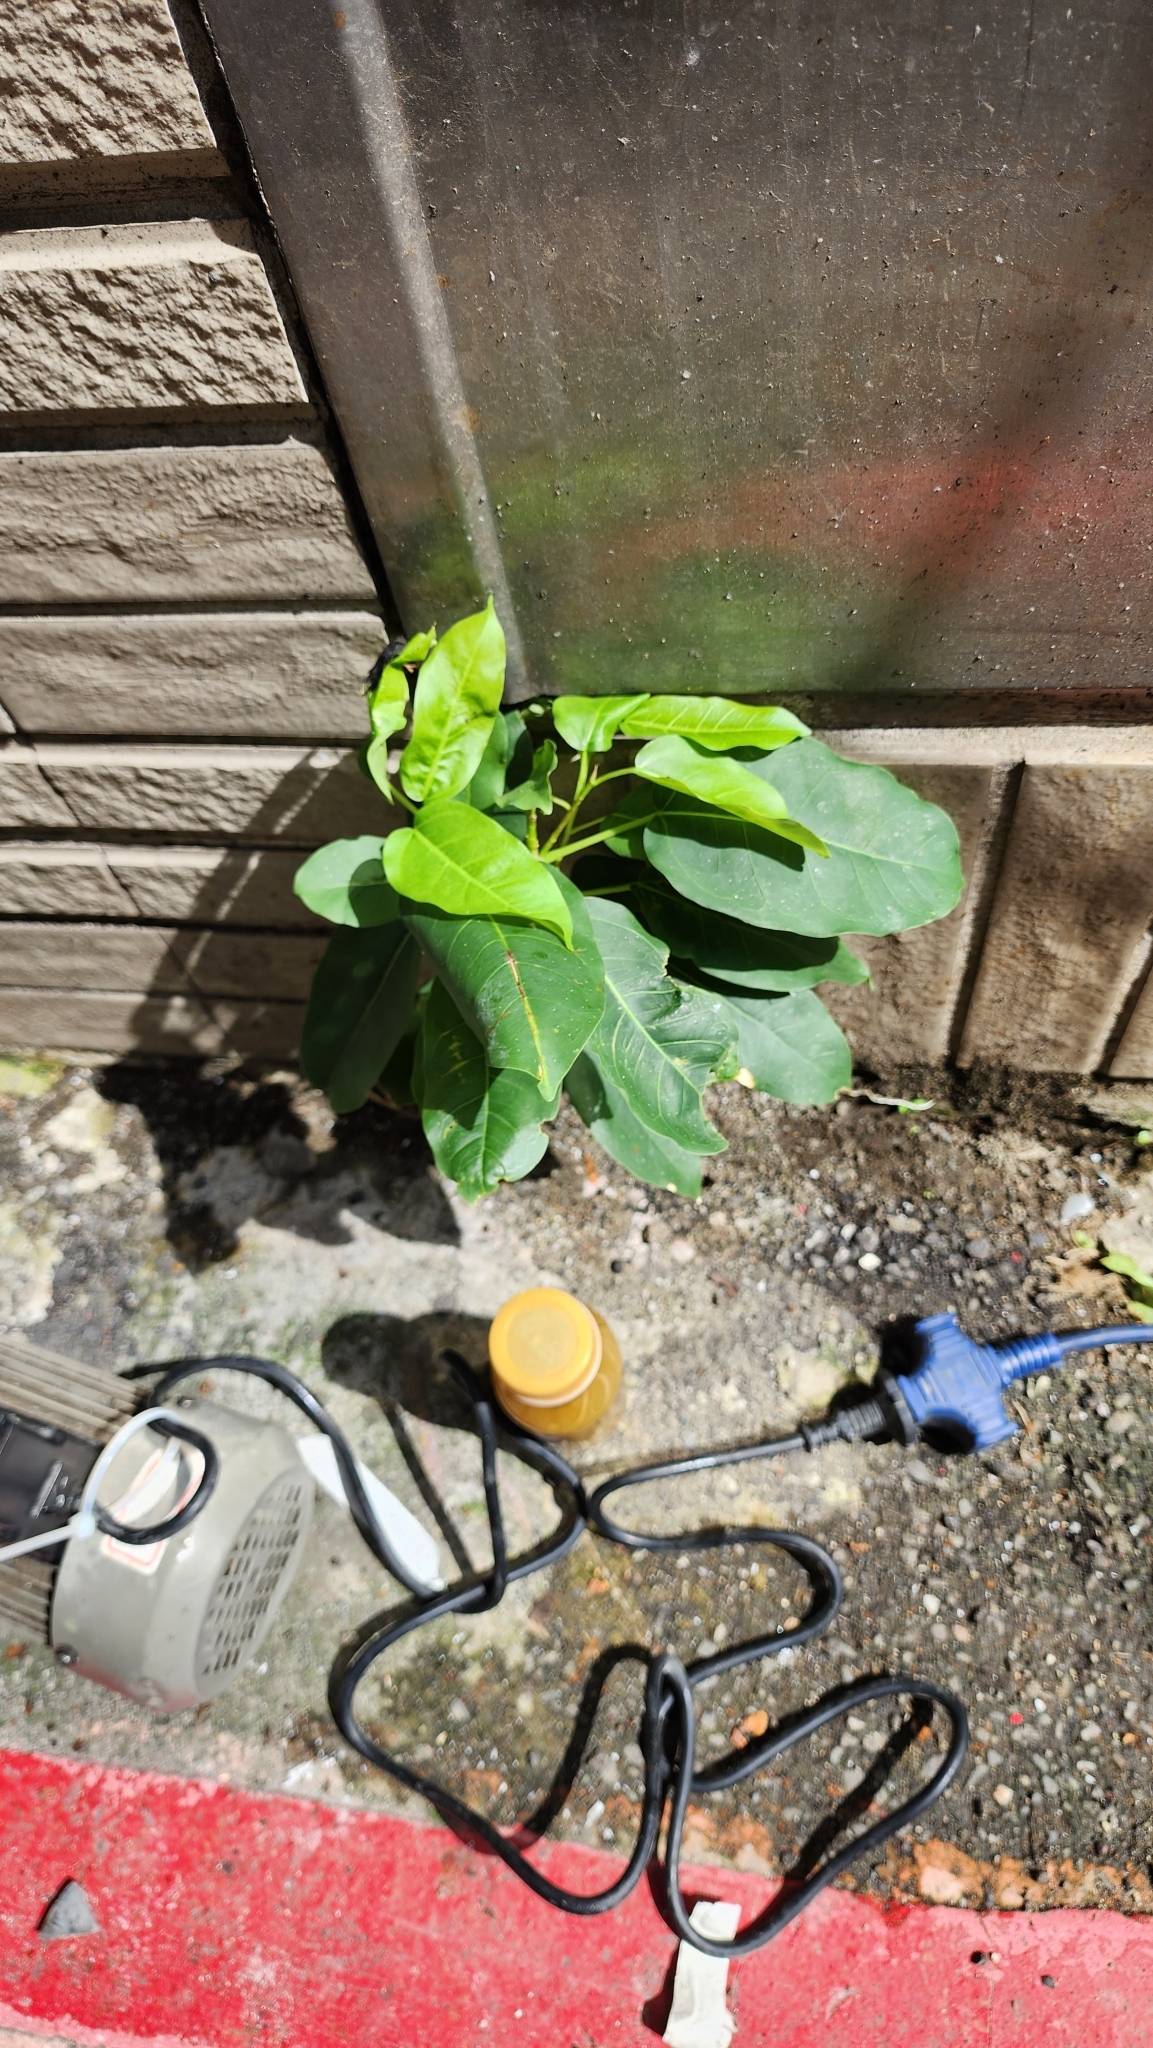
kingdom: Plantae
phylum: Tracheophyta
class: Magnoliopsida
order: Rosales
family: Moraceae
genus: Ficus
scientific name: Ficus subpisocarpa
